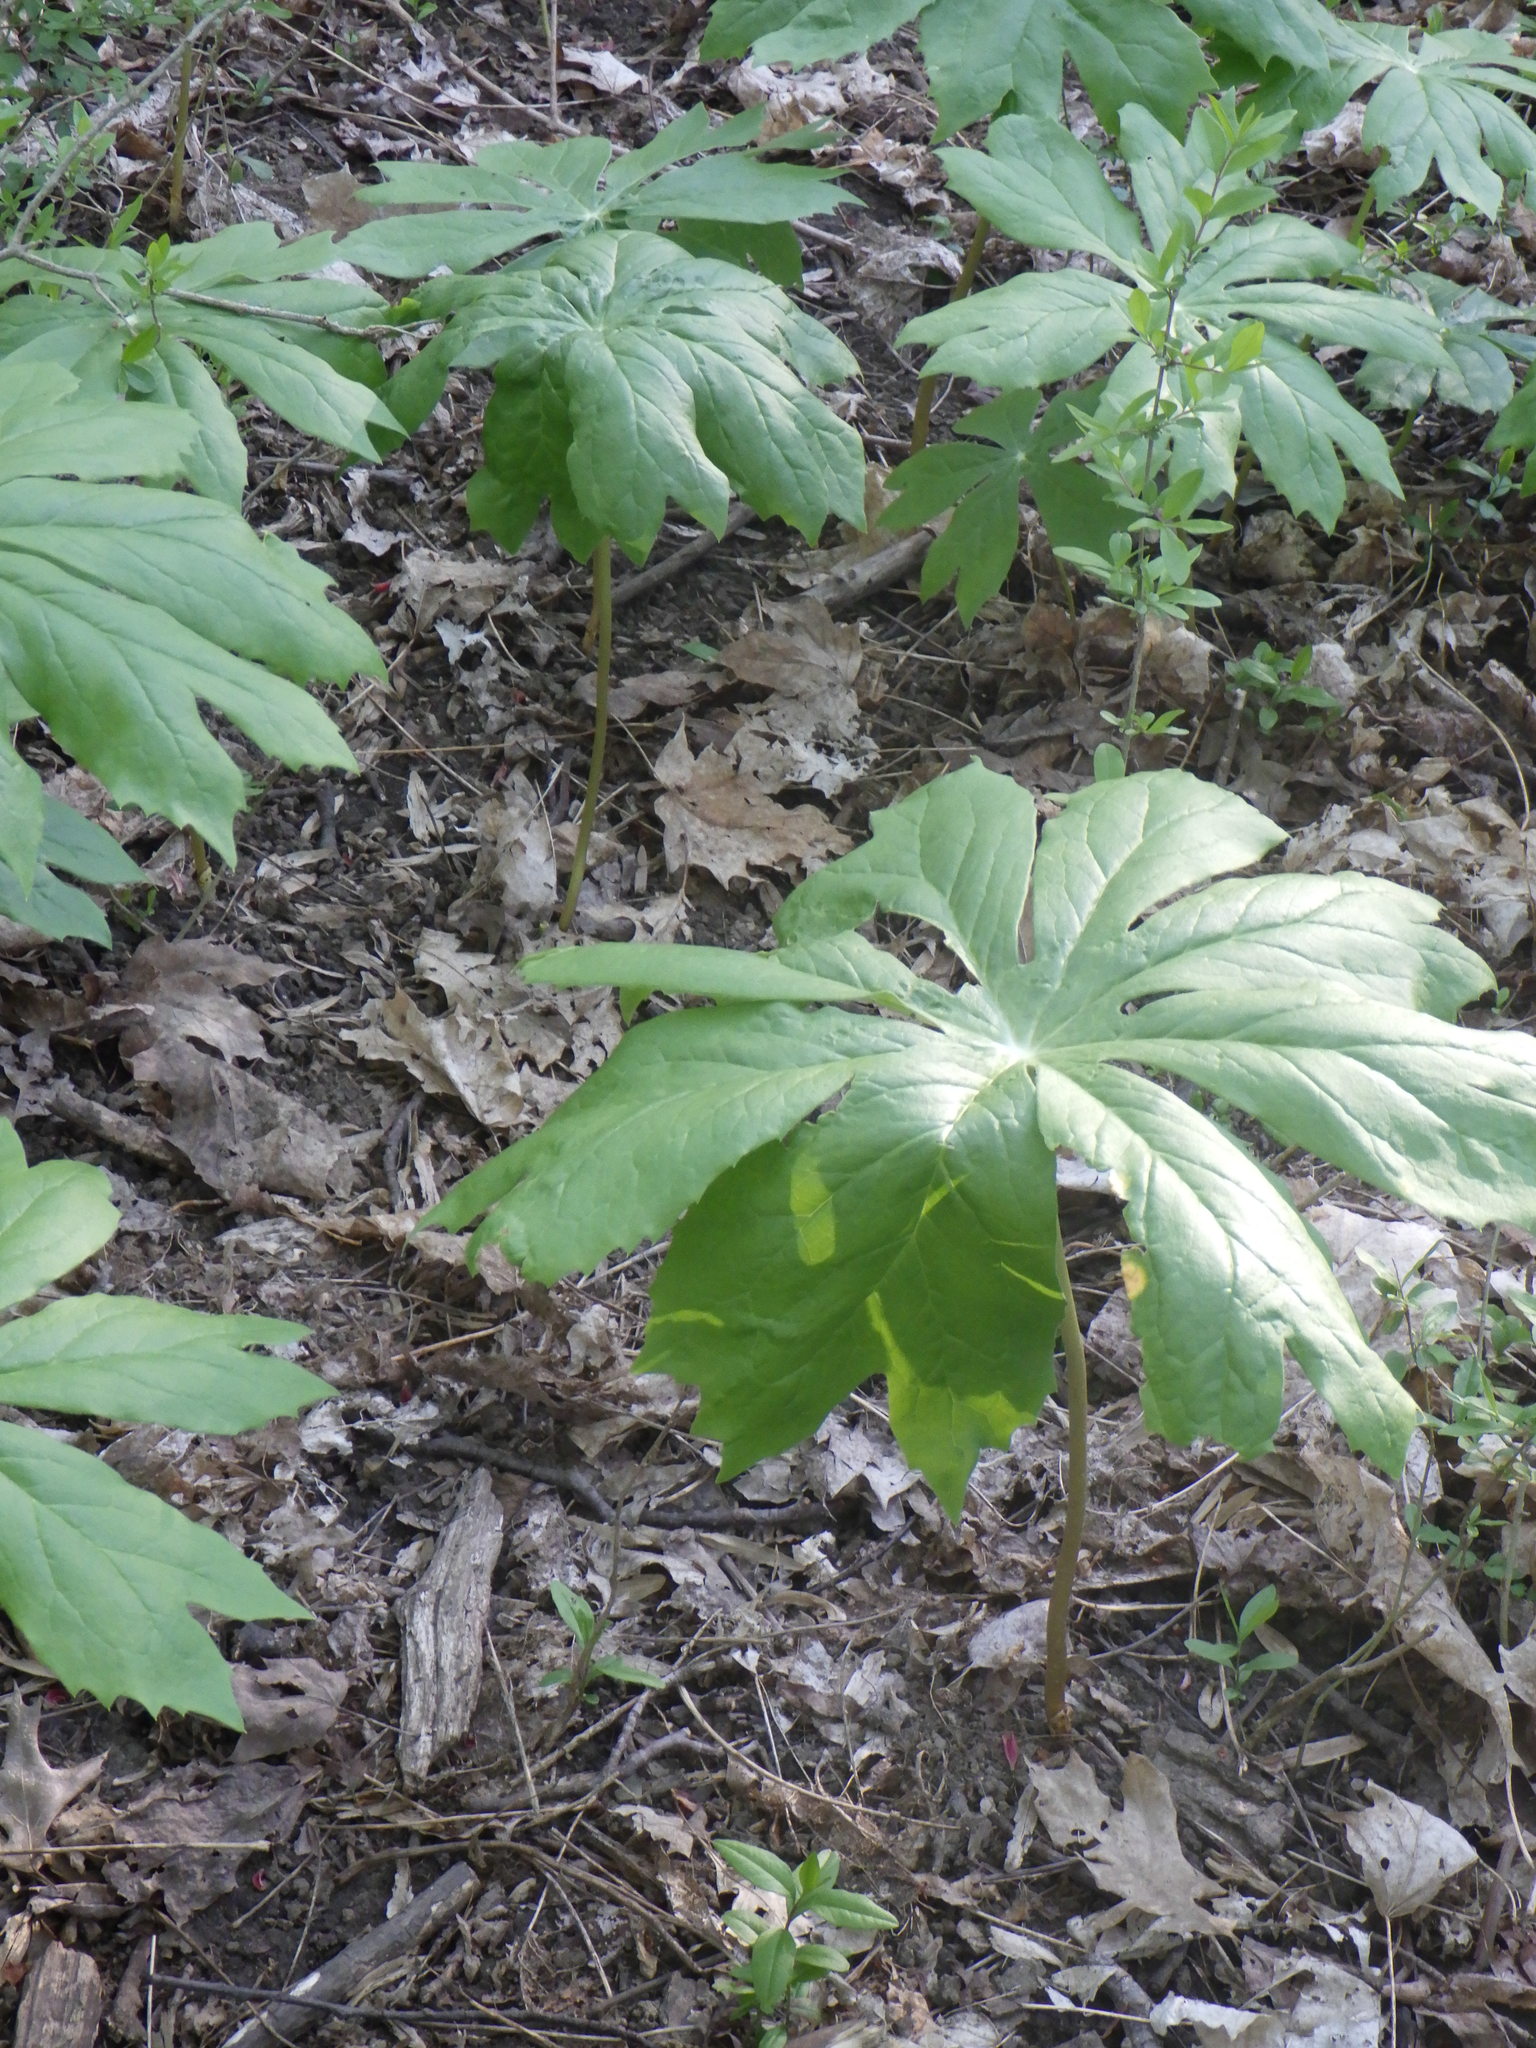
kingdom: Plantae
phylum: Tracheophyta
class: Magnoliopsida
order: Ranunculales
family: Berberidaceae
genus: Podophyllum
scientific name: Podophyllum peltatum
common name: Wild mandrake
